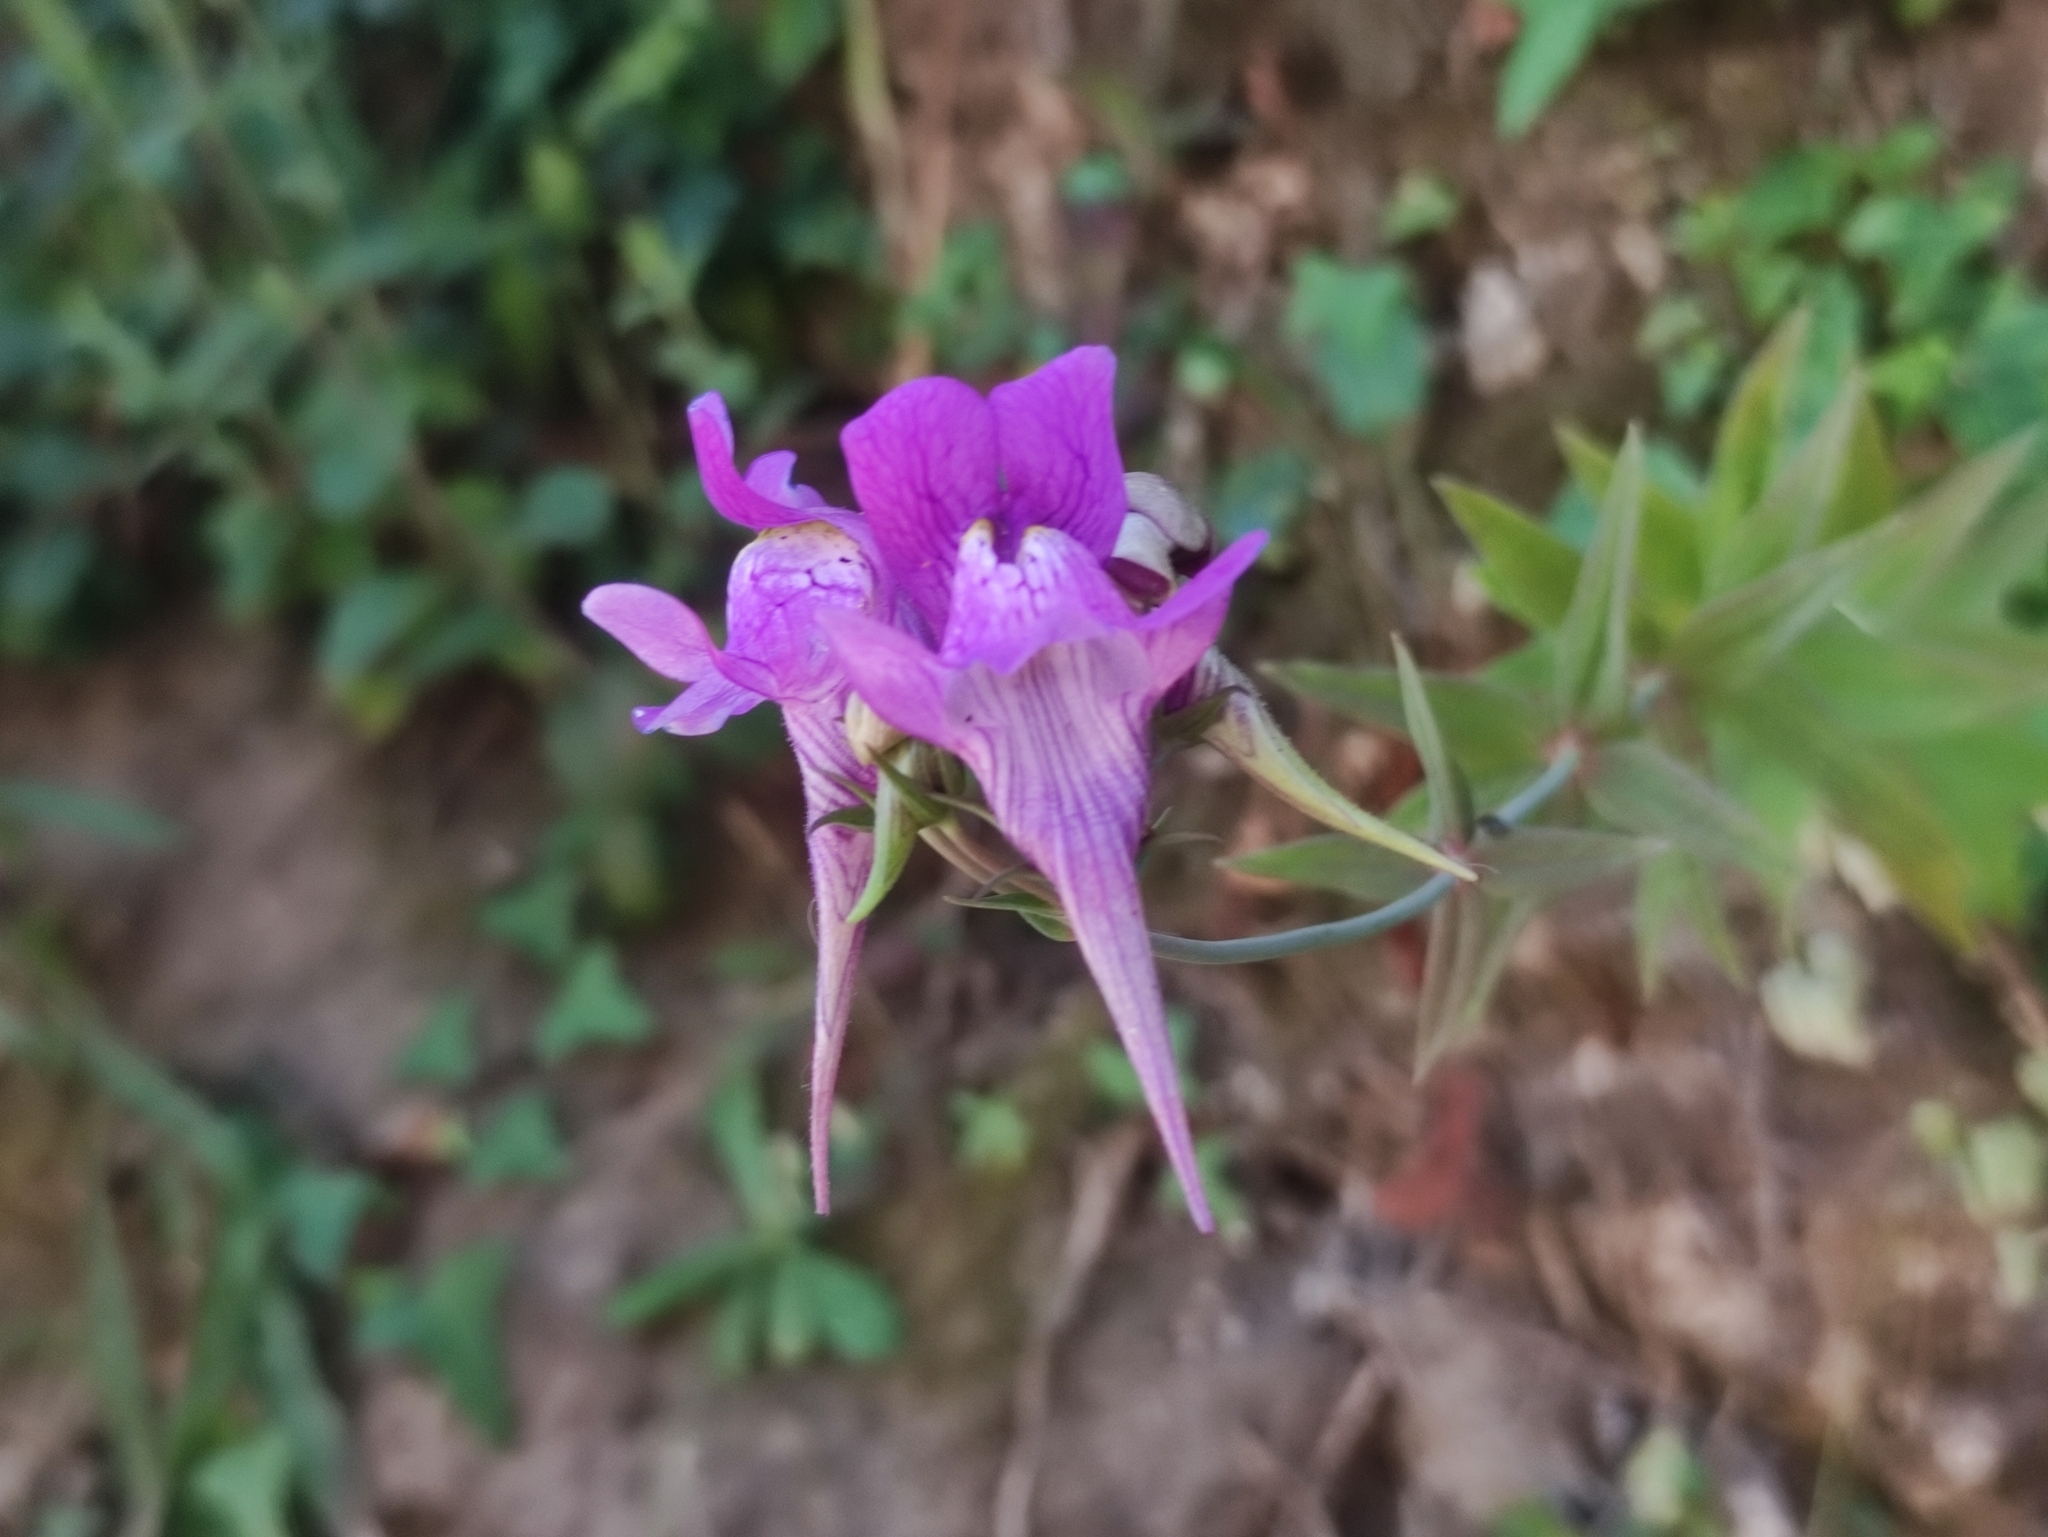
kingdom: Plantae
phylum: Tracheophyta
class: Magnoliopsida
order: Lamiales
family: Plantaginaceae
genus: Linaria
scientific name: Linaria triornithophora
